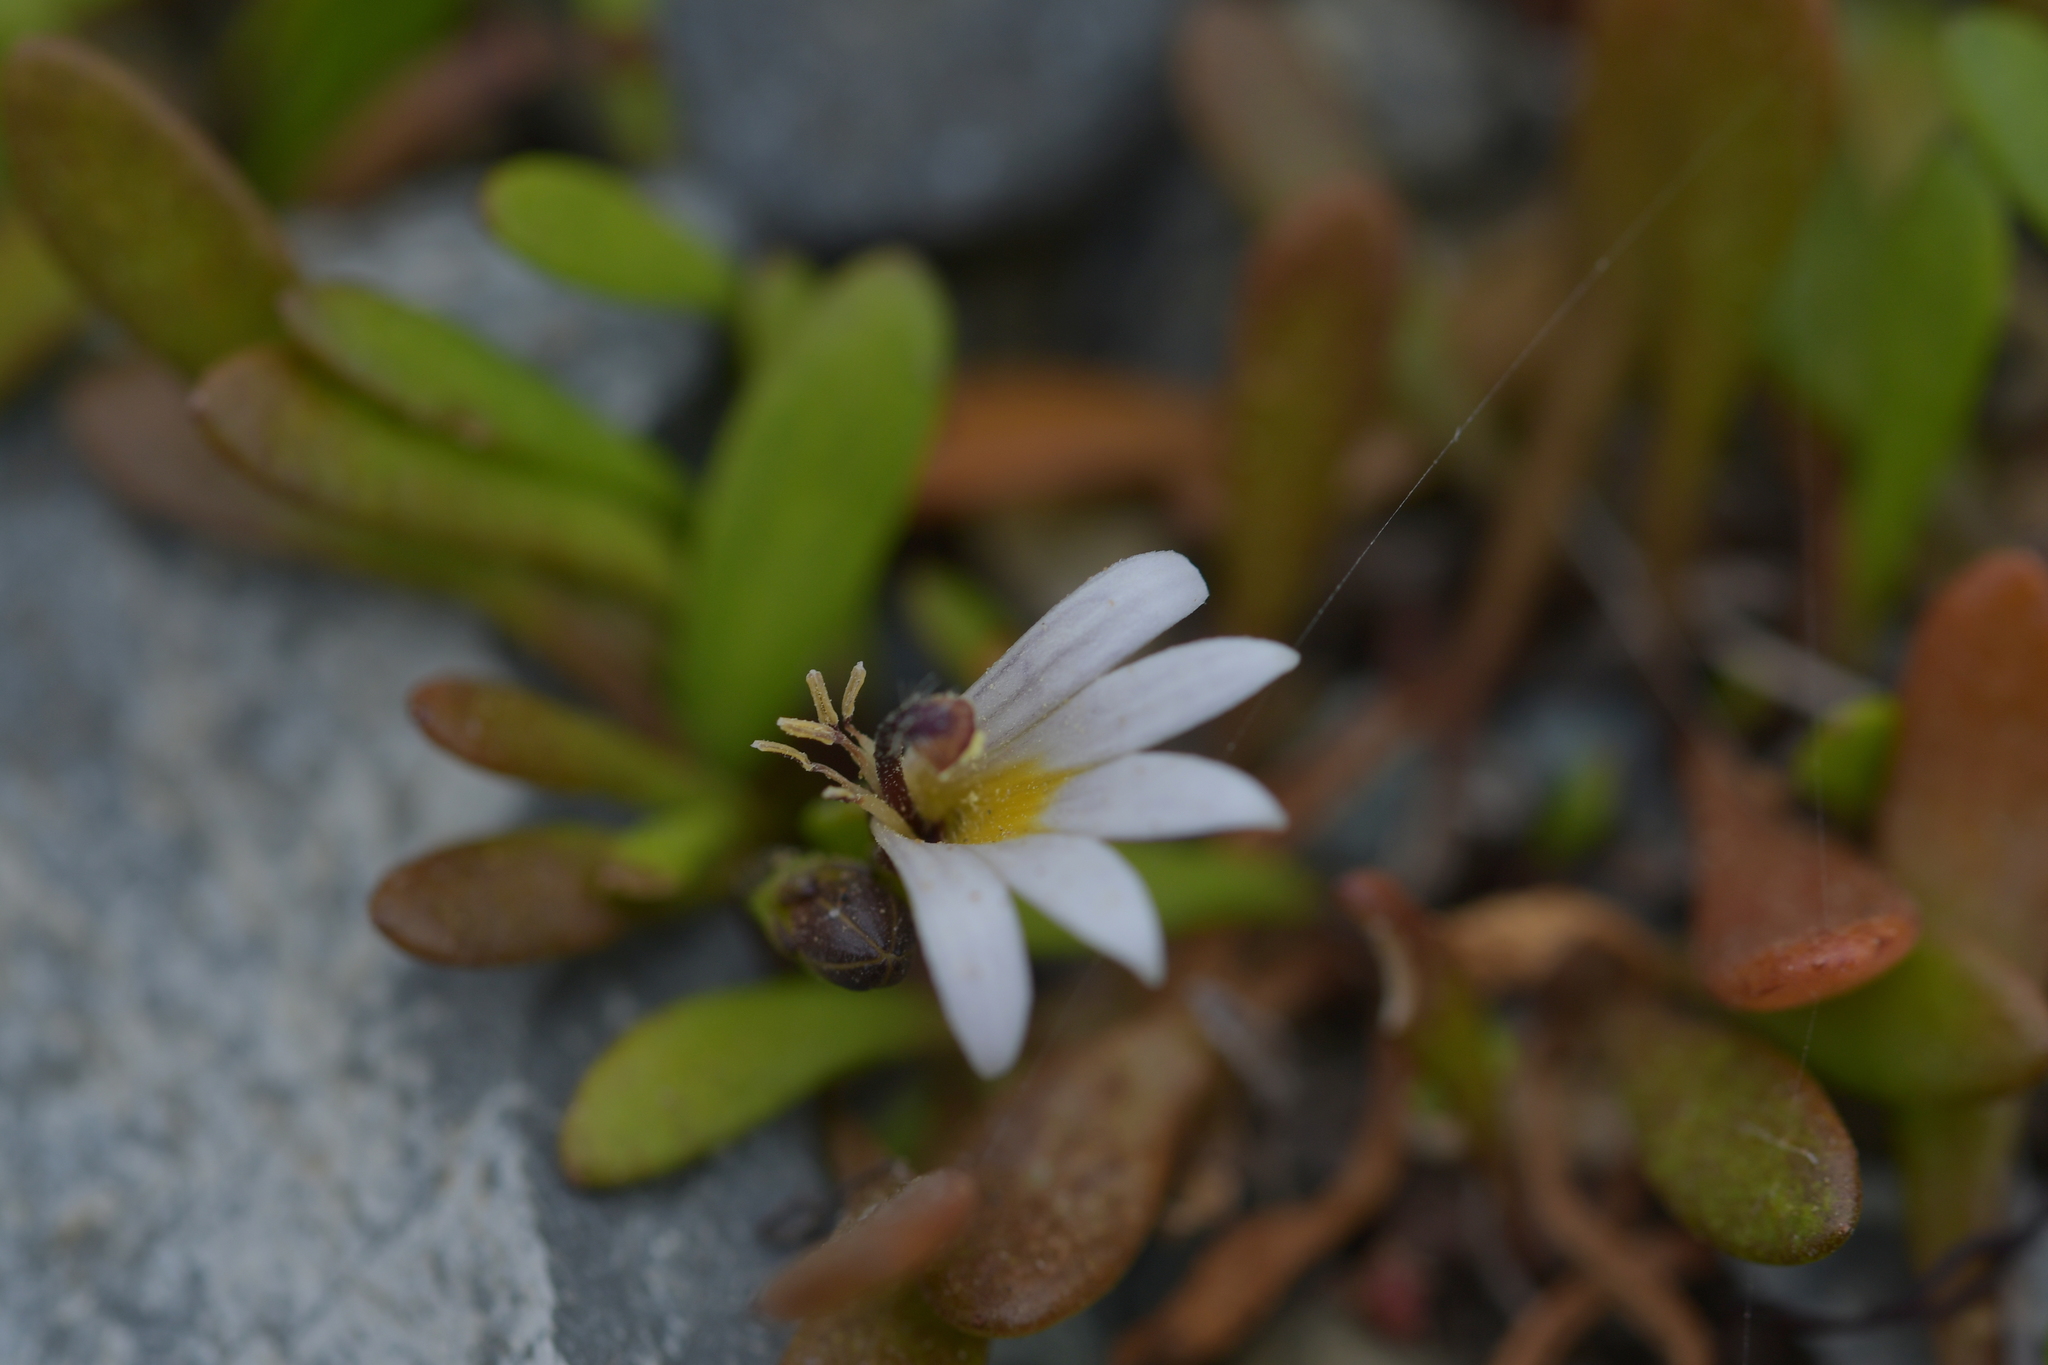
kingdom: Plantae
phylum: Tracheophyta
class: Magnoliopsida
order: Asterales
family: Goodeniaceae
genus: Goodenia
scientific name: Goodenia radicans
